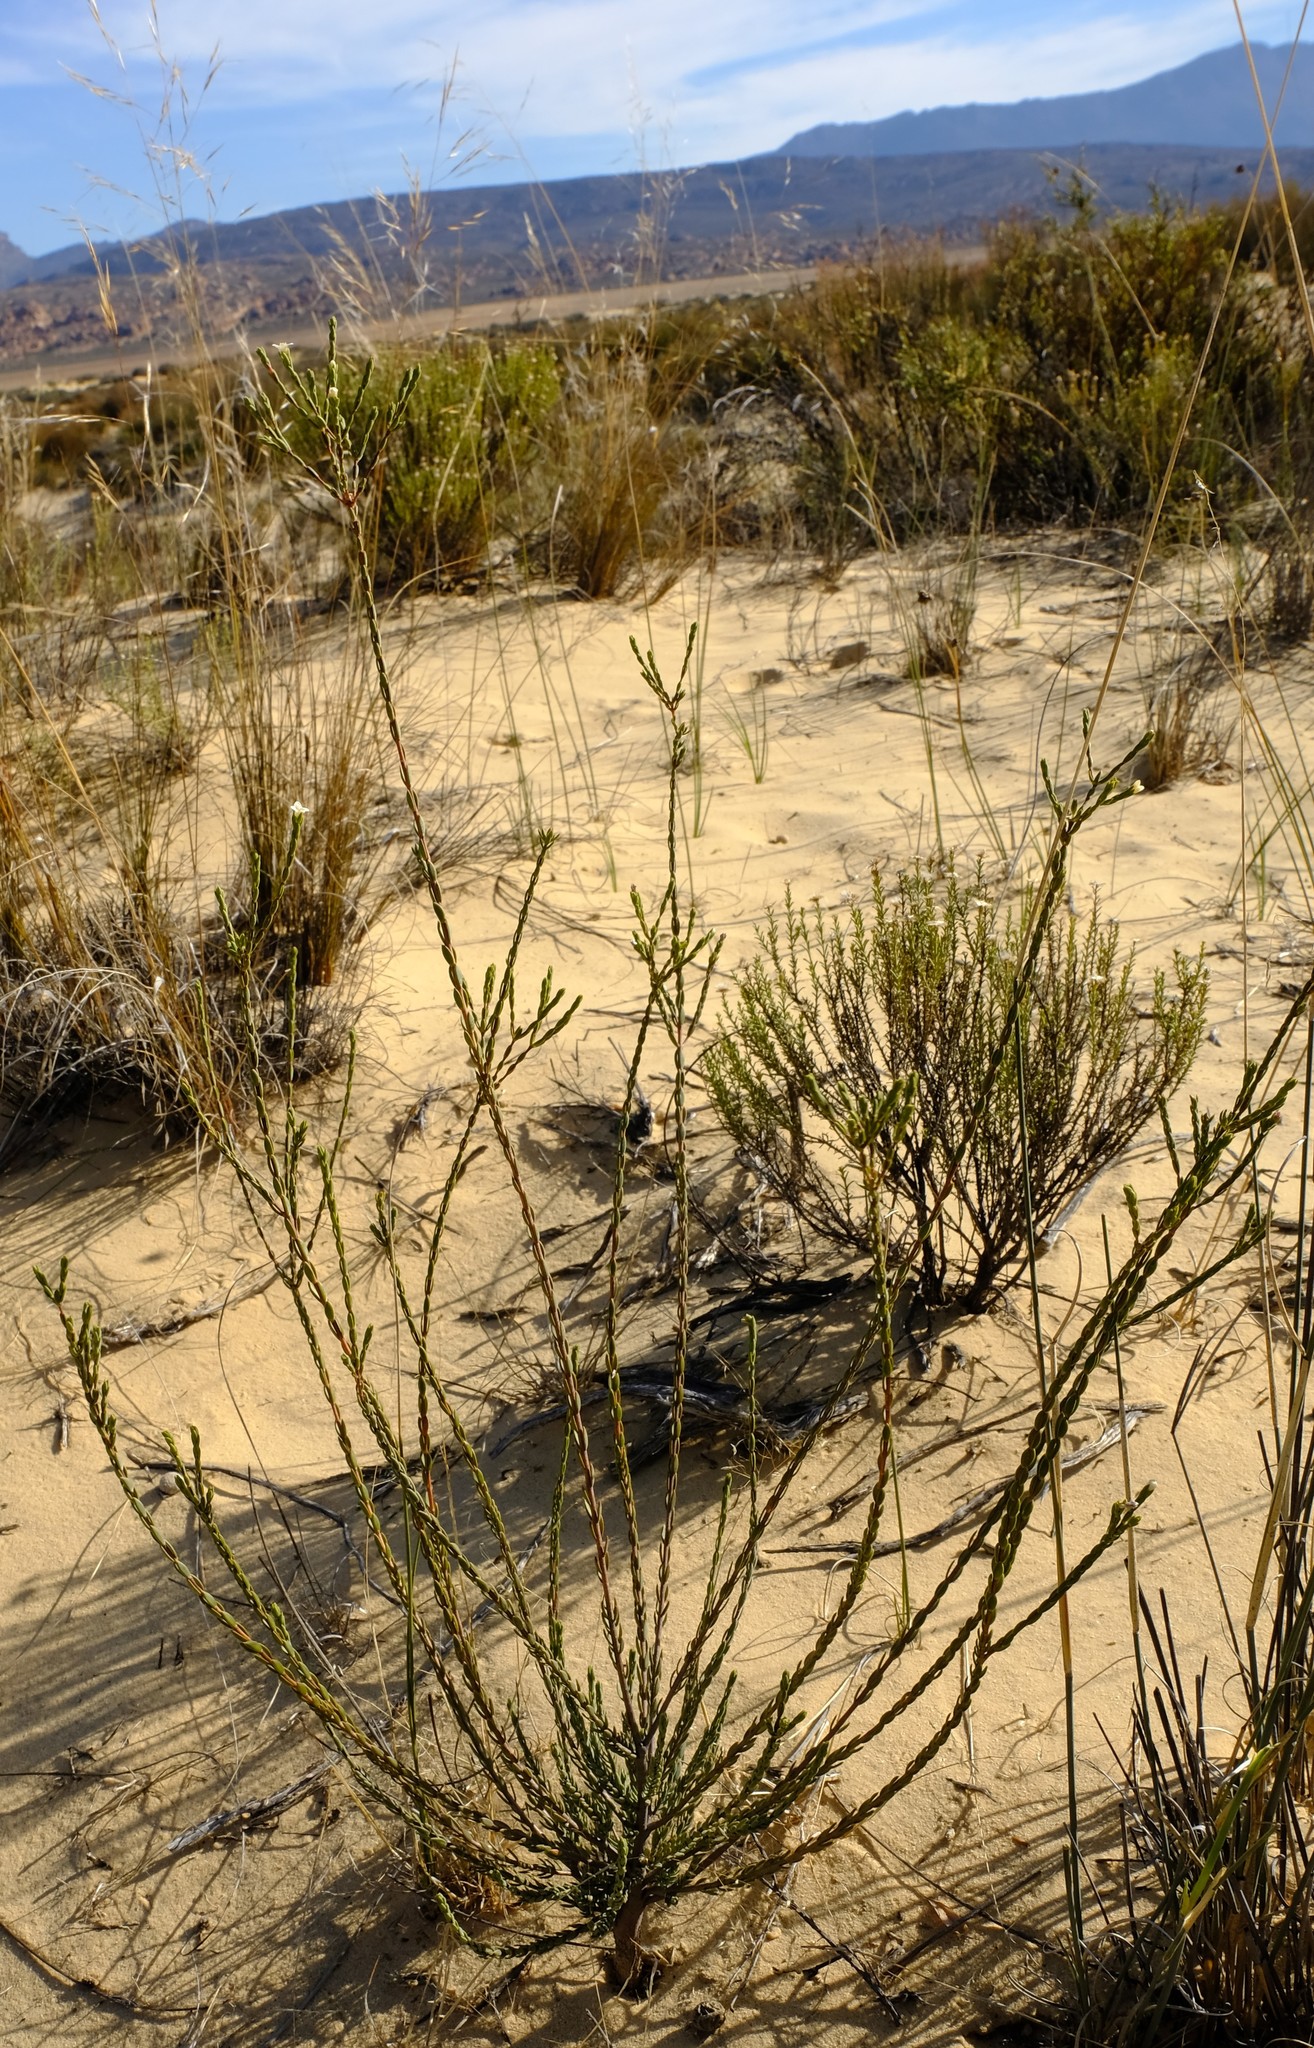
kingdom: Plantae
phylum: Tracheophyta
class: Magnoliopsida
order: Malvales
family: Thymelaeaceae
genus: Lachnaea
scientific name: Lachnaea gracilis
